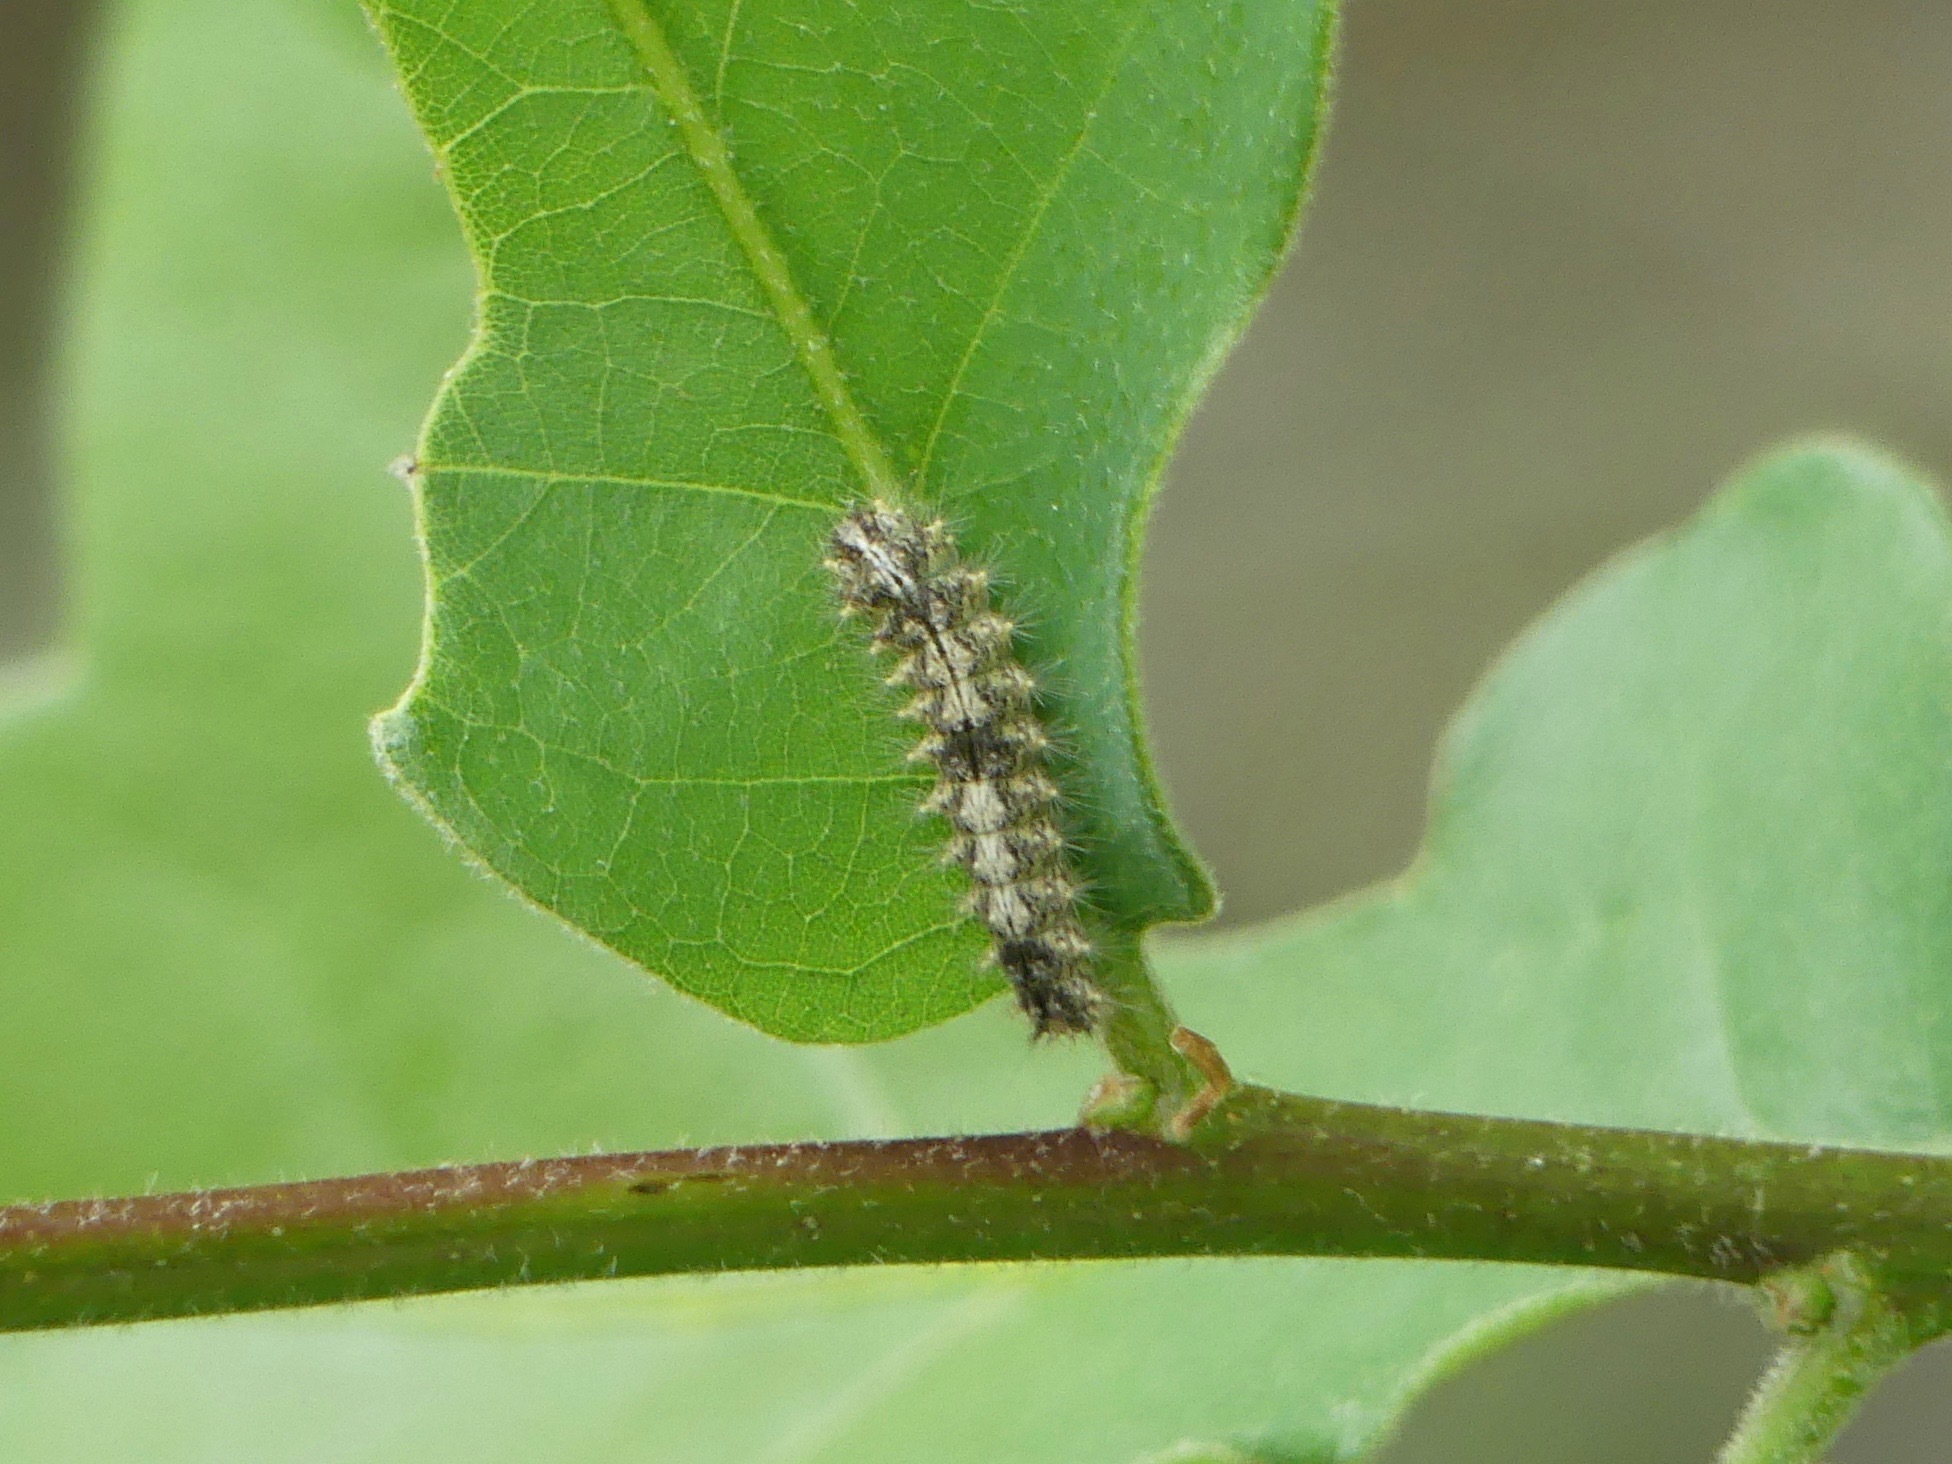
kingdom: Animalia
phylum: Arthropoda
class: Insecta
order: Lepidoptera
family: Nolidae
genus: Meganola
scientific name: Meganola minuscula
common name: Confused meganola moth
